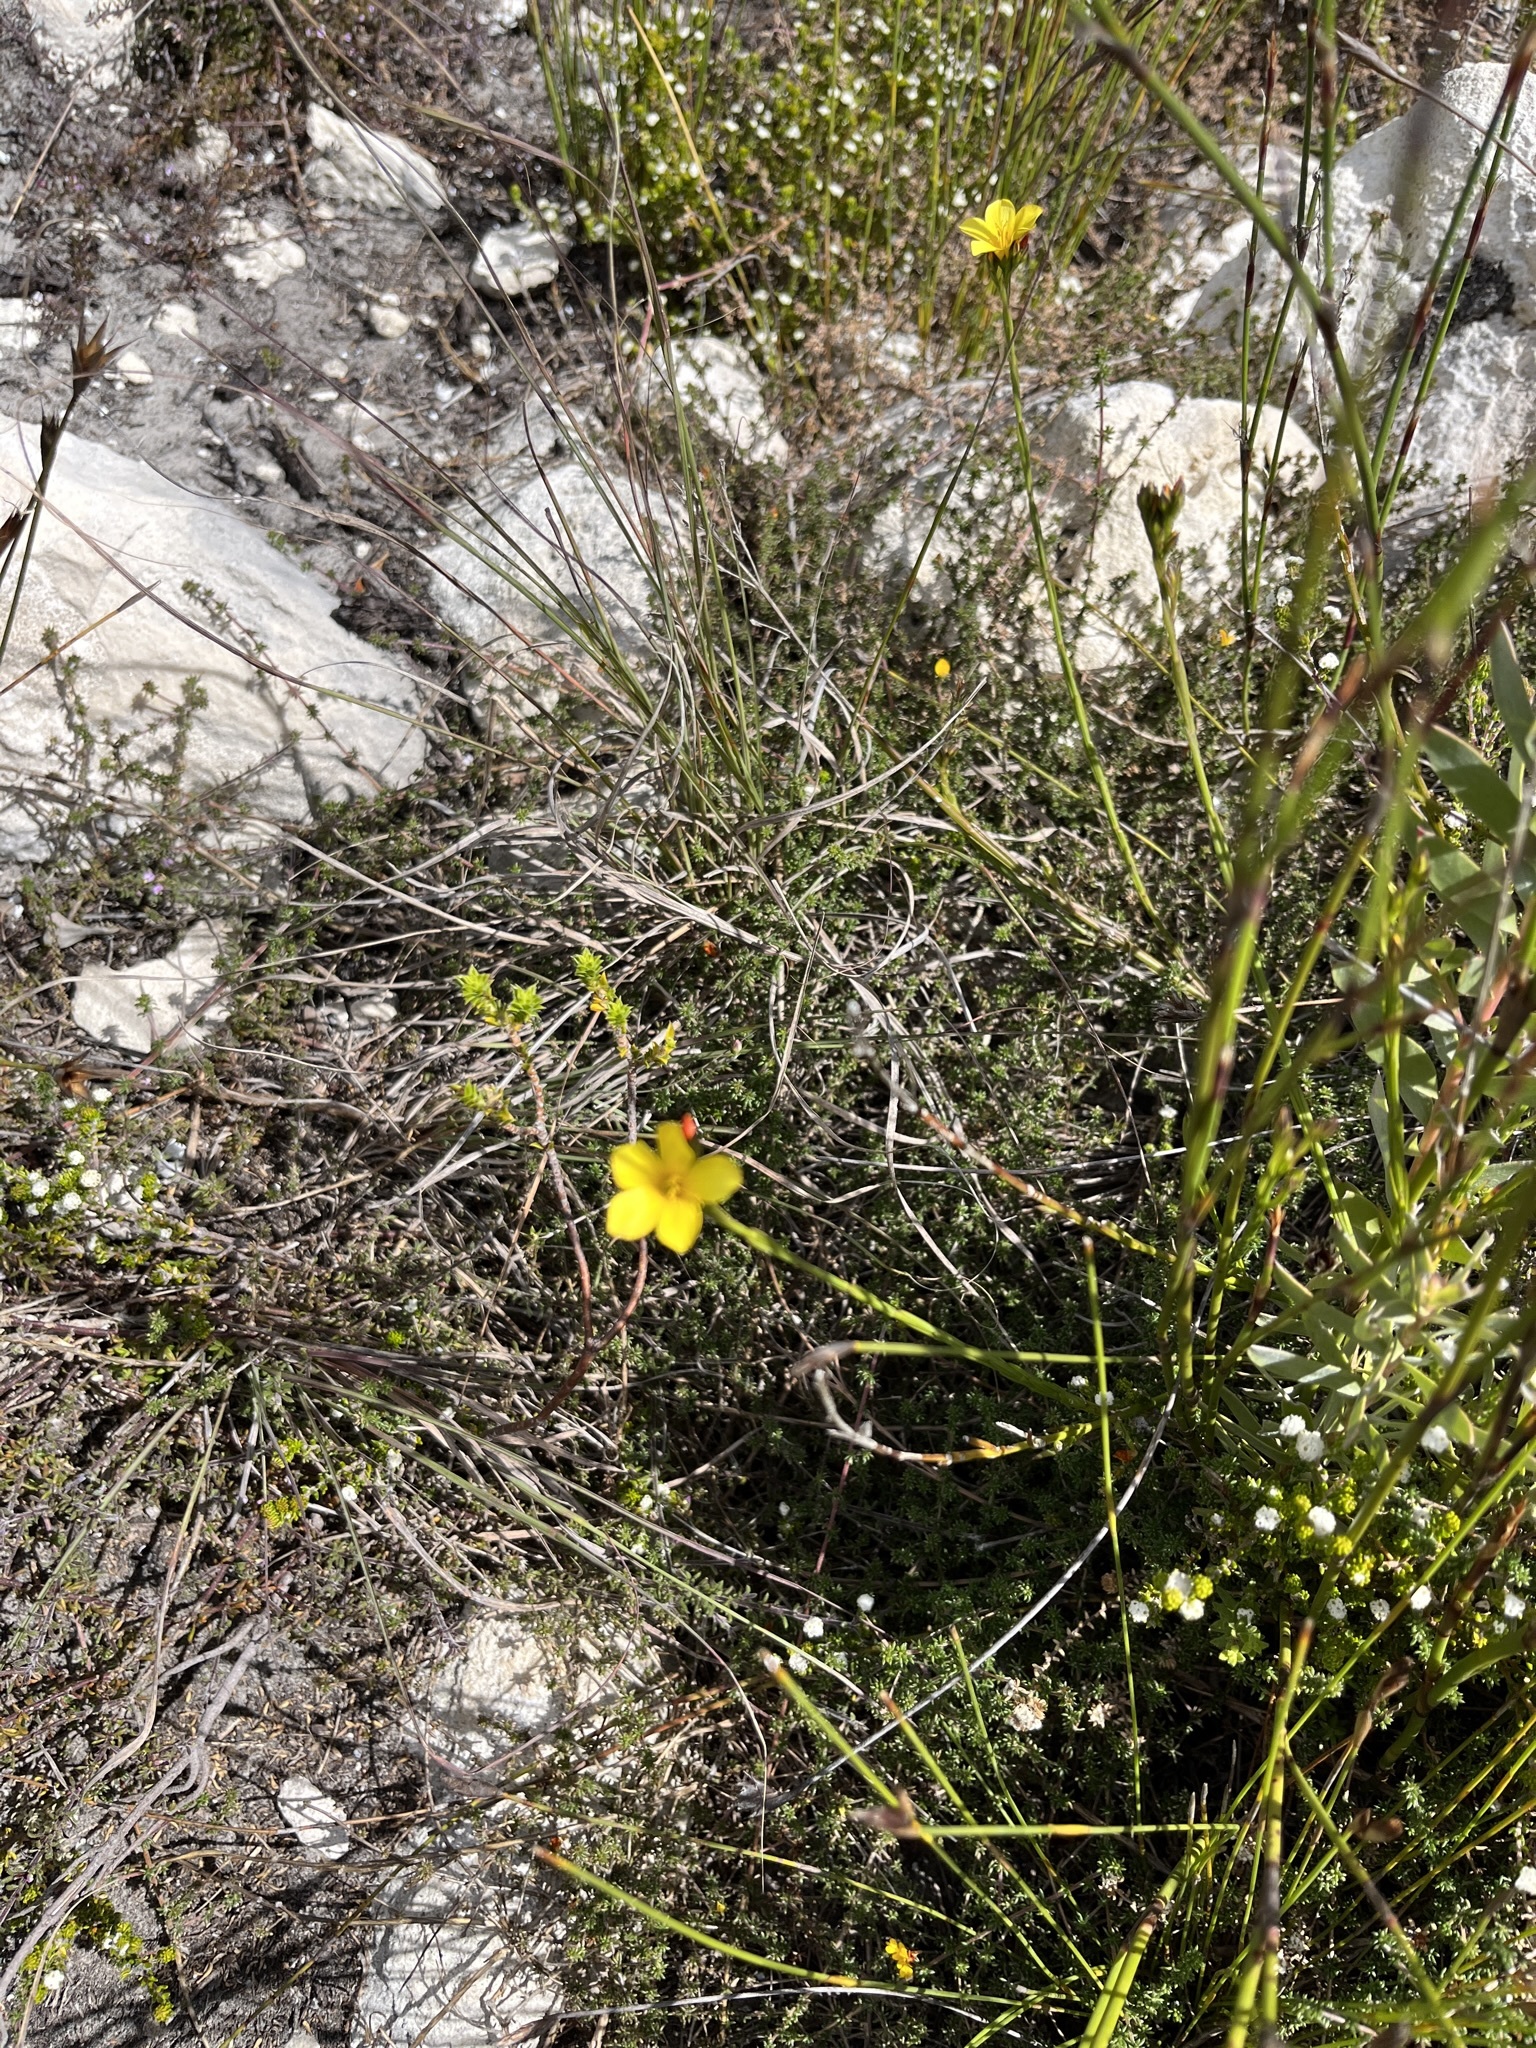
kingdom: Plantae
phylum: Tracheophyta
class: Magnoliopsida
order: Malpighiales
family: Linaceae
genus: Linum
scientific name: Linum africanum
